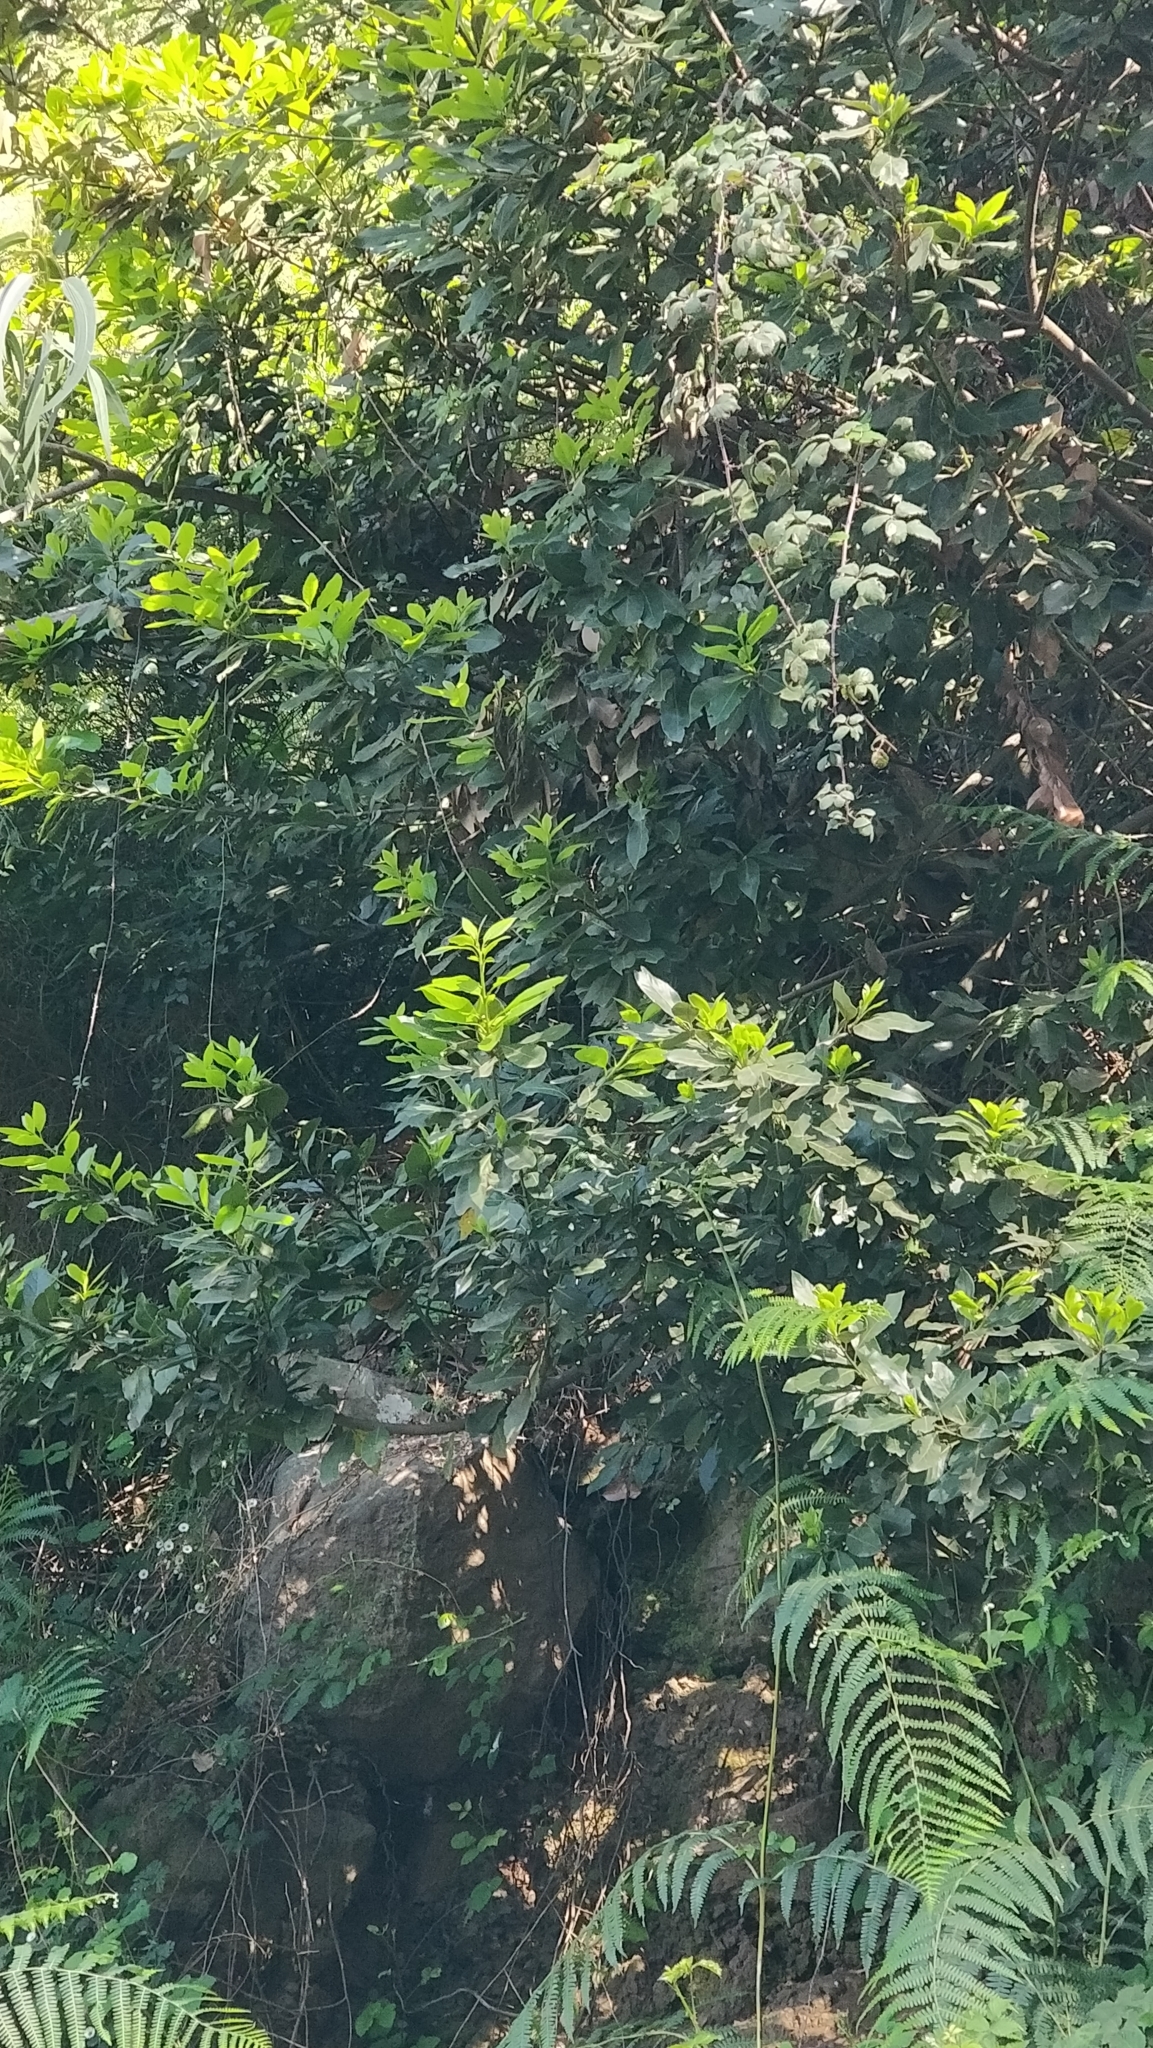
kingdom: Plantae
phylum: Tracheophyta
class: Magnoliopsida
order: Laurales
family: Lauraceae
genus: Laurus
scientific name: Laurus novocanariensis
